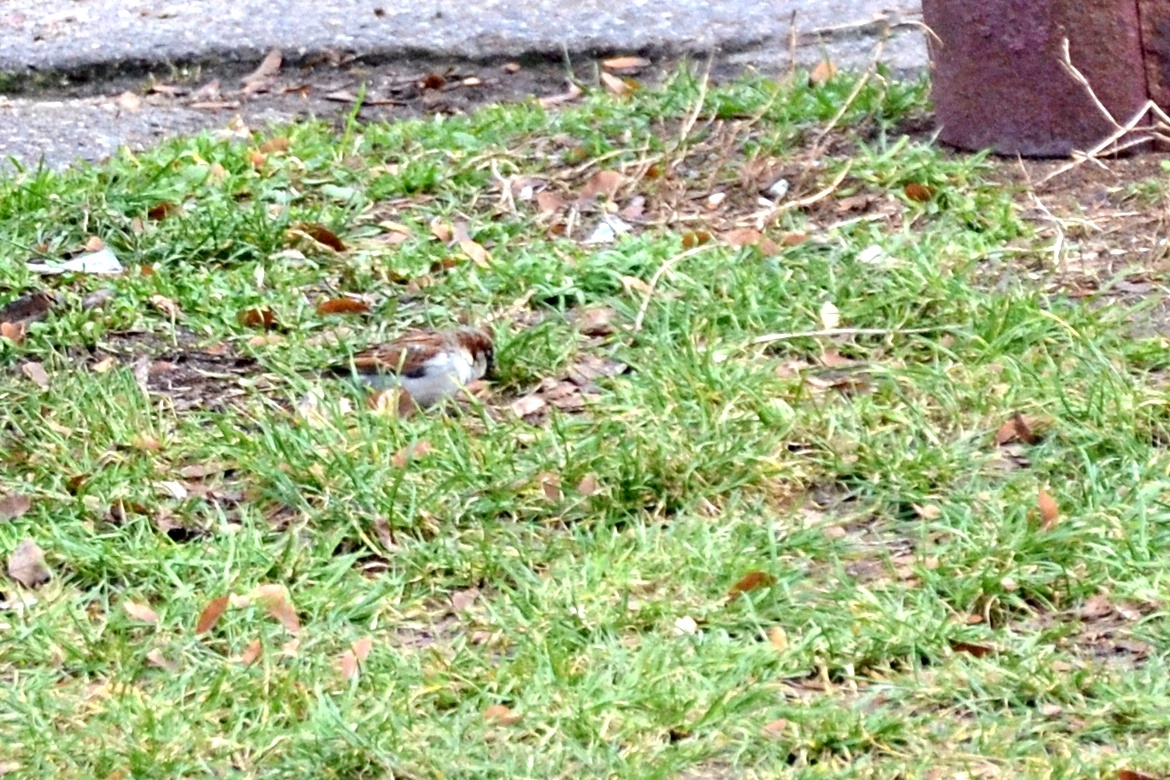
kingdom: Animalia
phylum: Chordata
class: Aves
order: Passeriformes
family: Passeridae
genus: Passer
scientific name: Passer domesticus
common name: House sparrow
